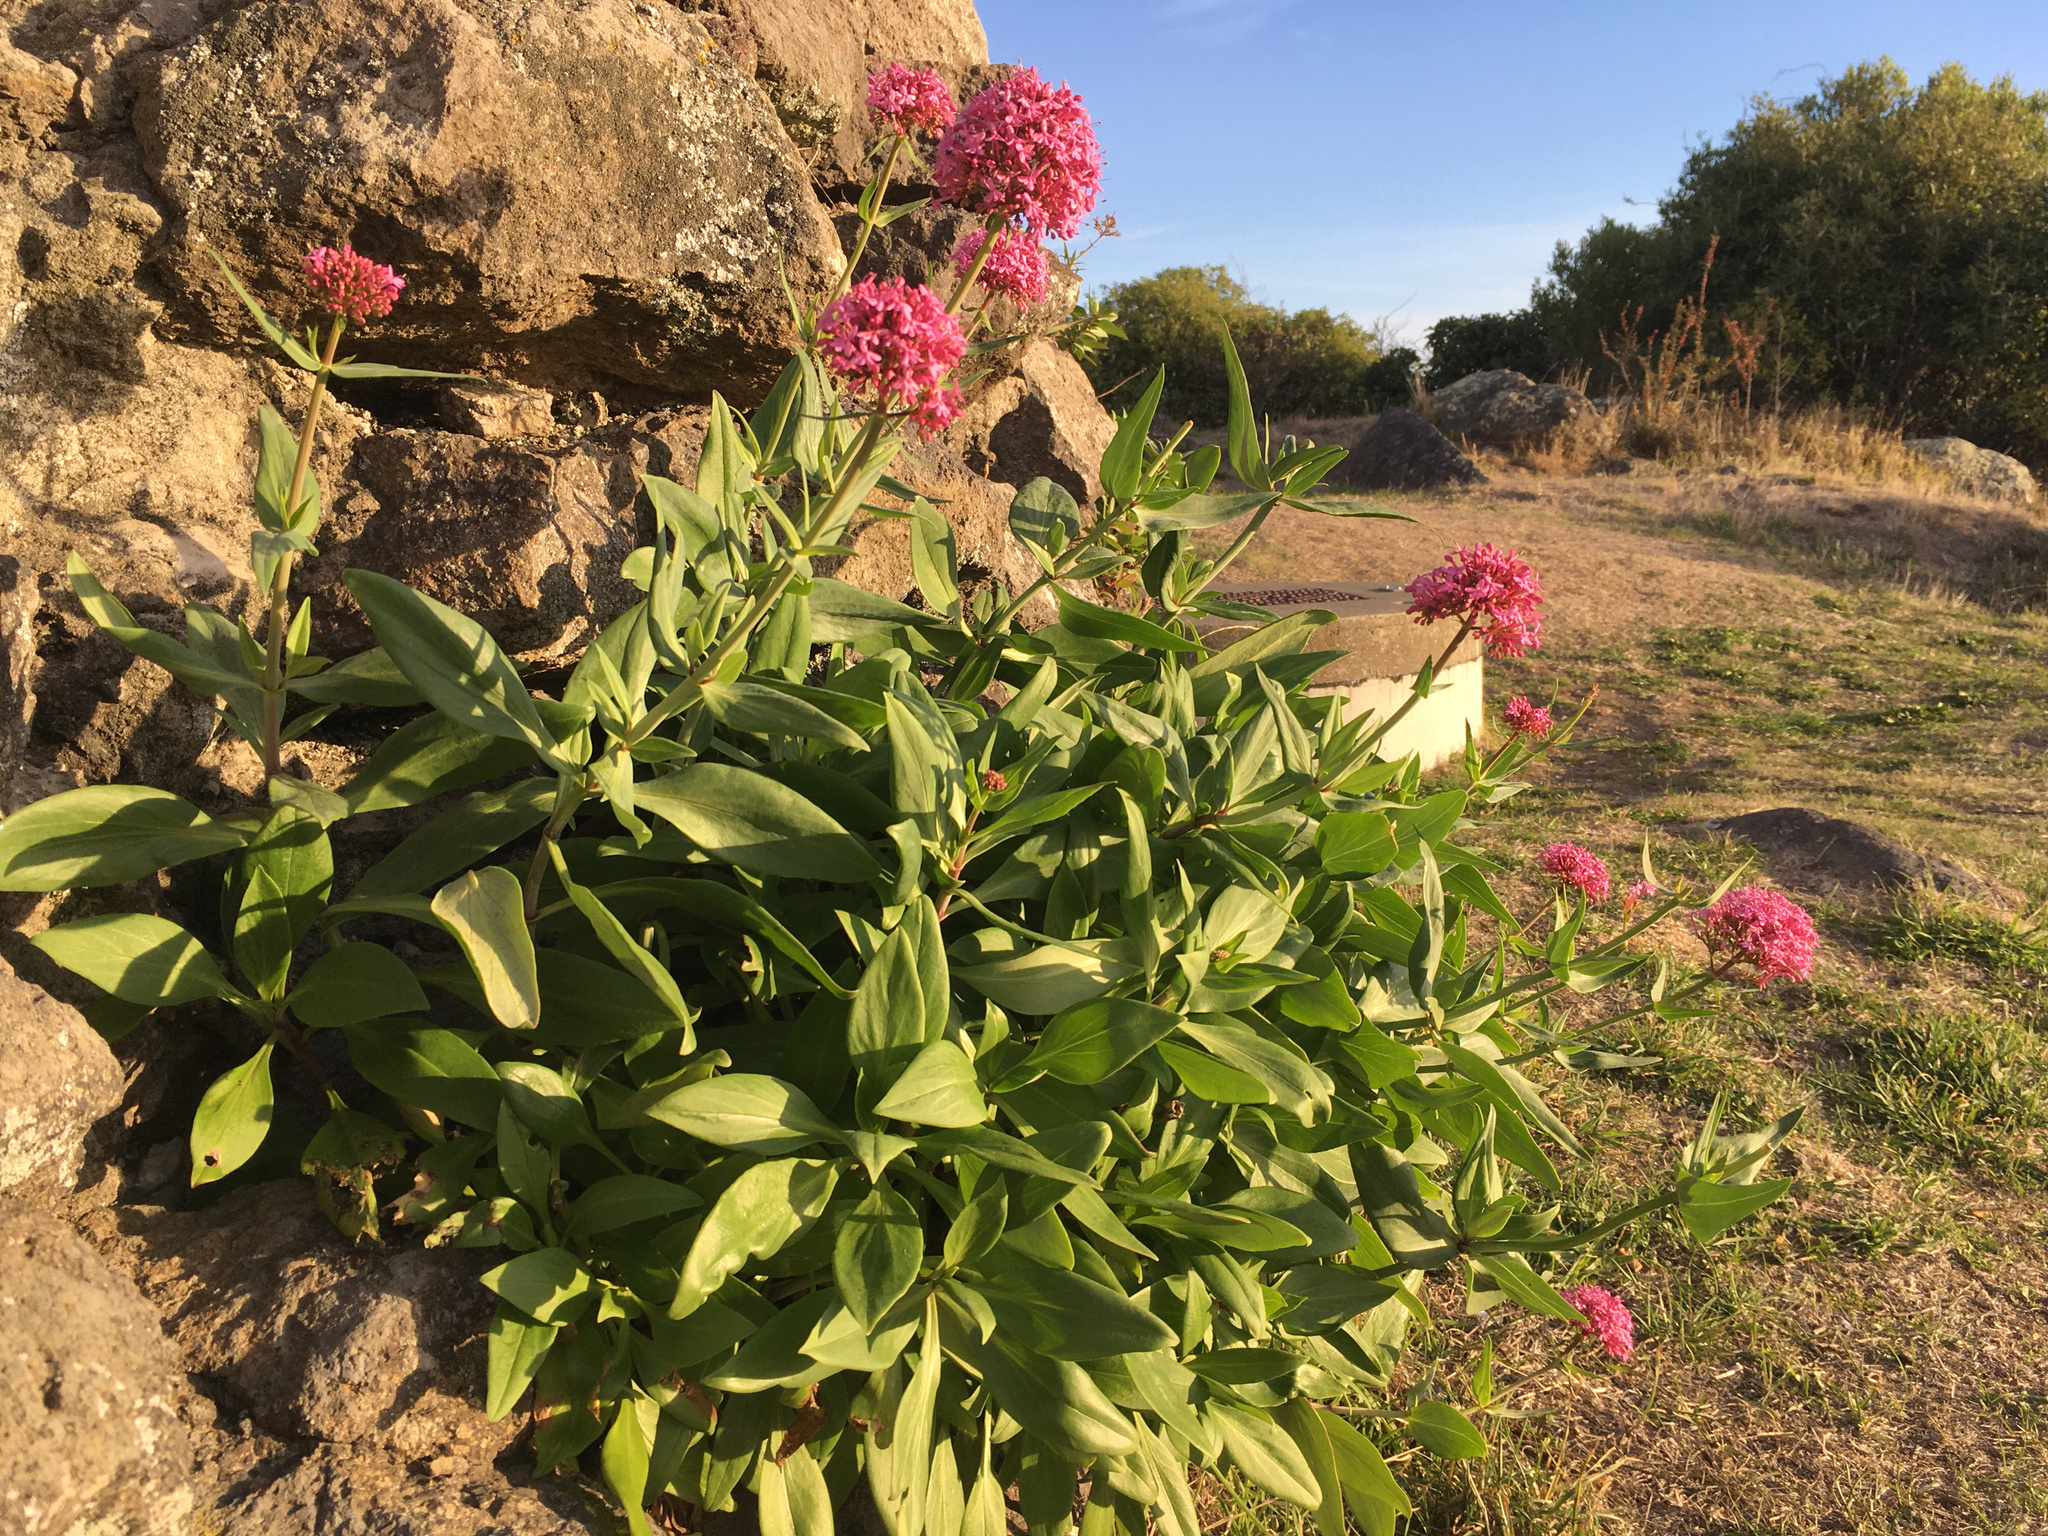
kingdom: Plantae
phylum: Tracheophyta
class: Magnoliopsida
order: Dipsacales
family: Caprifoliaceae
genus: Centranthus
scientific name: Centranthus ruber
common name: Red valerian
